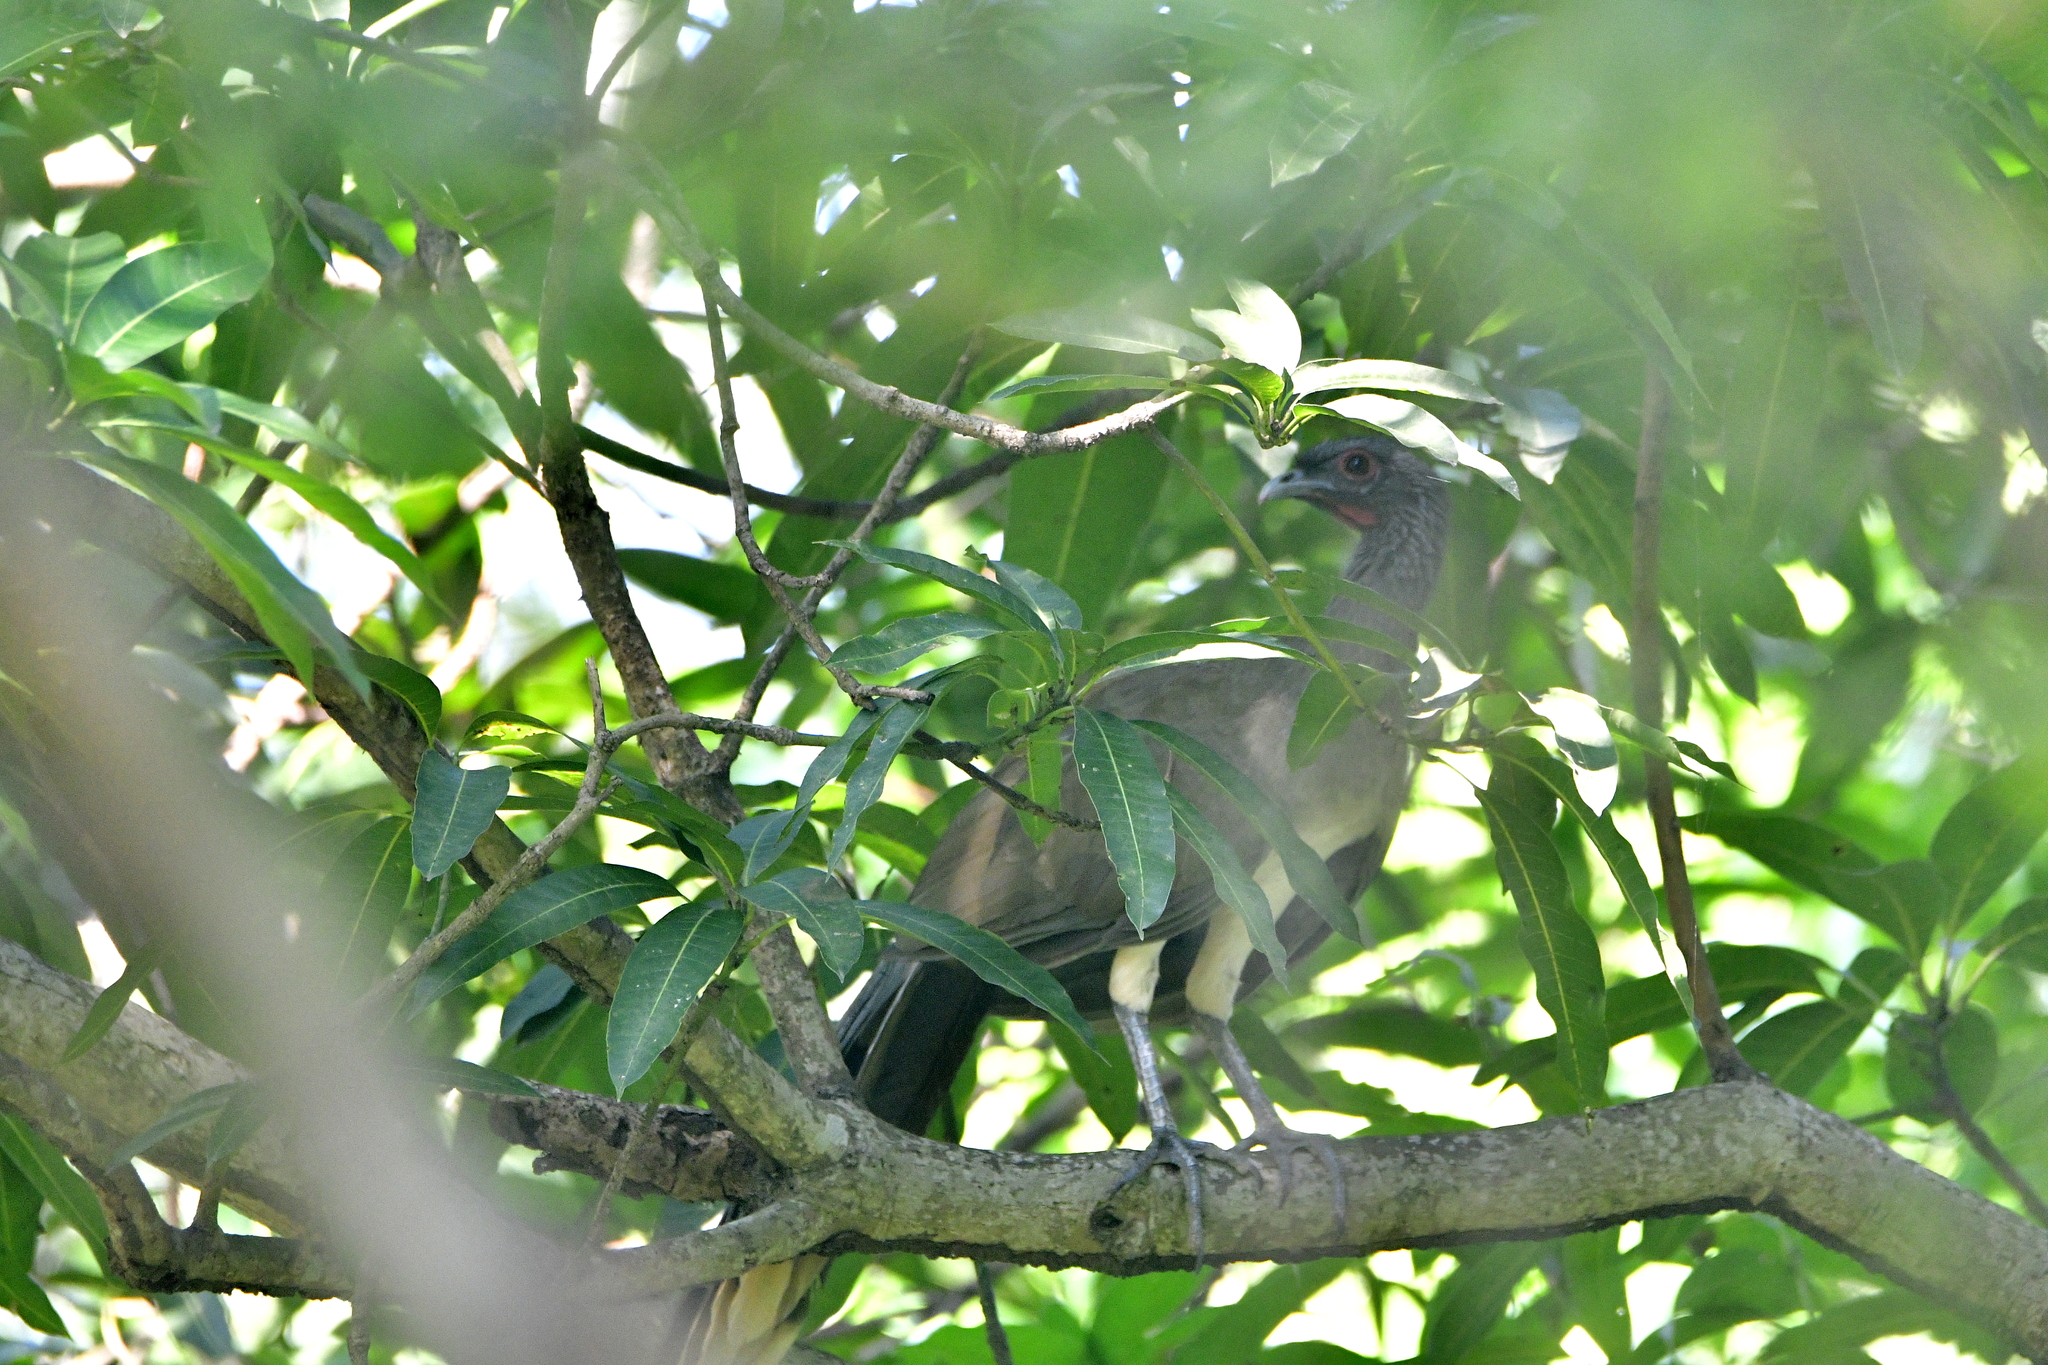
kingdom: Animalia
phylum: Chordata
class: Aves
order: Galliformes
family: Cracidae
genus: Ortalis
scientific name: Ortalis poliocephala
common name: West mexican chachalaca
